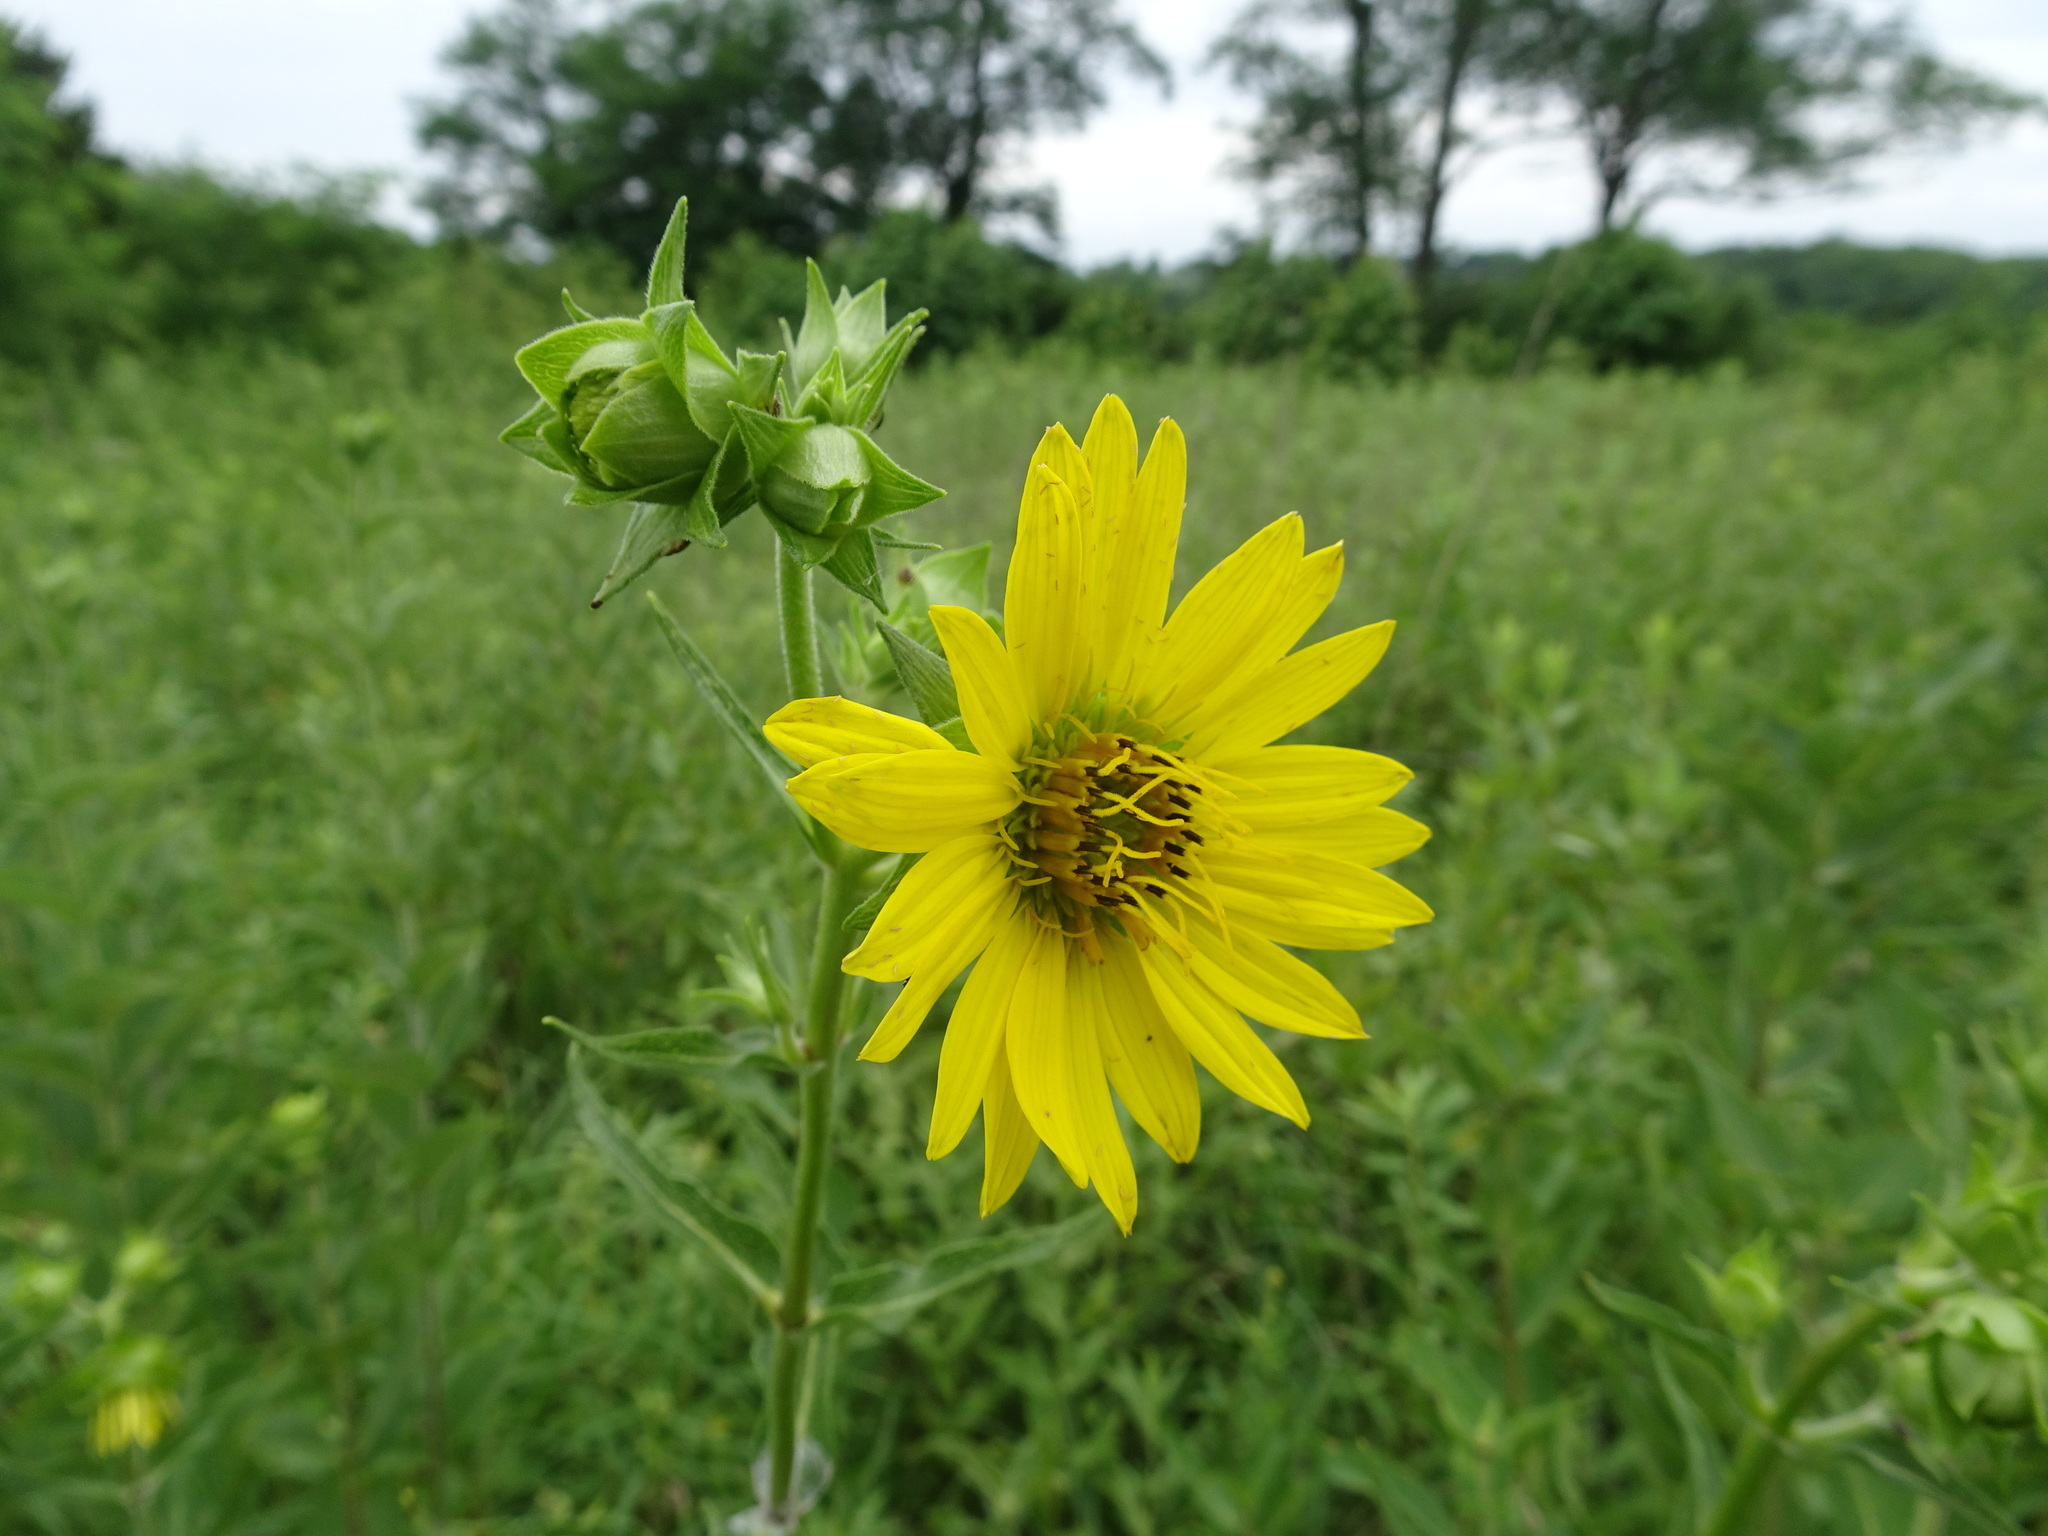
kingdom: Plantae
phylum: Tracheophyta
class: Magnoliopsida
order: Asterales
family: Asteraceae
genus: Silphium
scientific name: Silphium integrifolium
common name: Whole-leaf rosinweed
